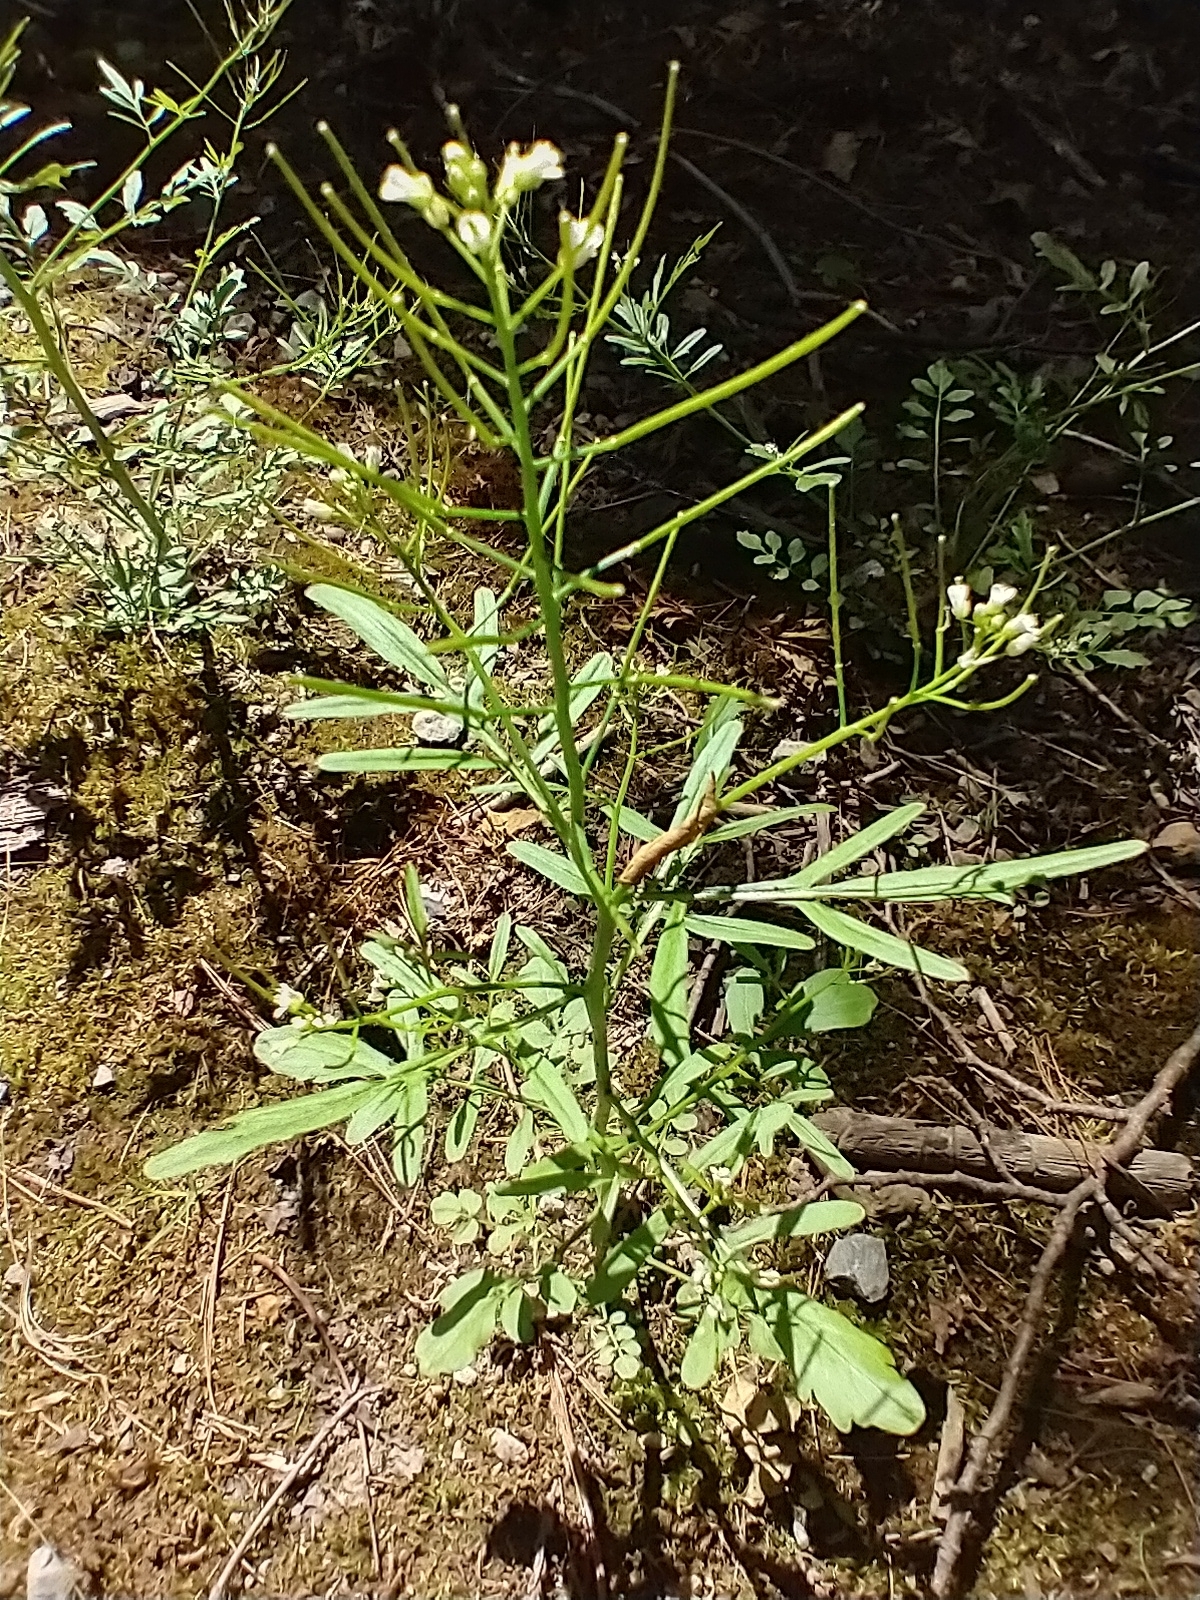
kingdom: Plantae
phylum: Tracheophyta
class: Magnoliopsida
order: Brassicales
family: Brassicaceae
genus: Cardamine
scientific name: Cardamine pensylvanica
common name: Pennsylvania bittercress
